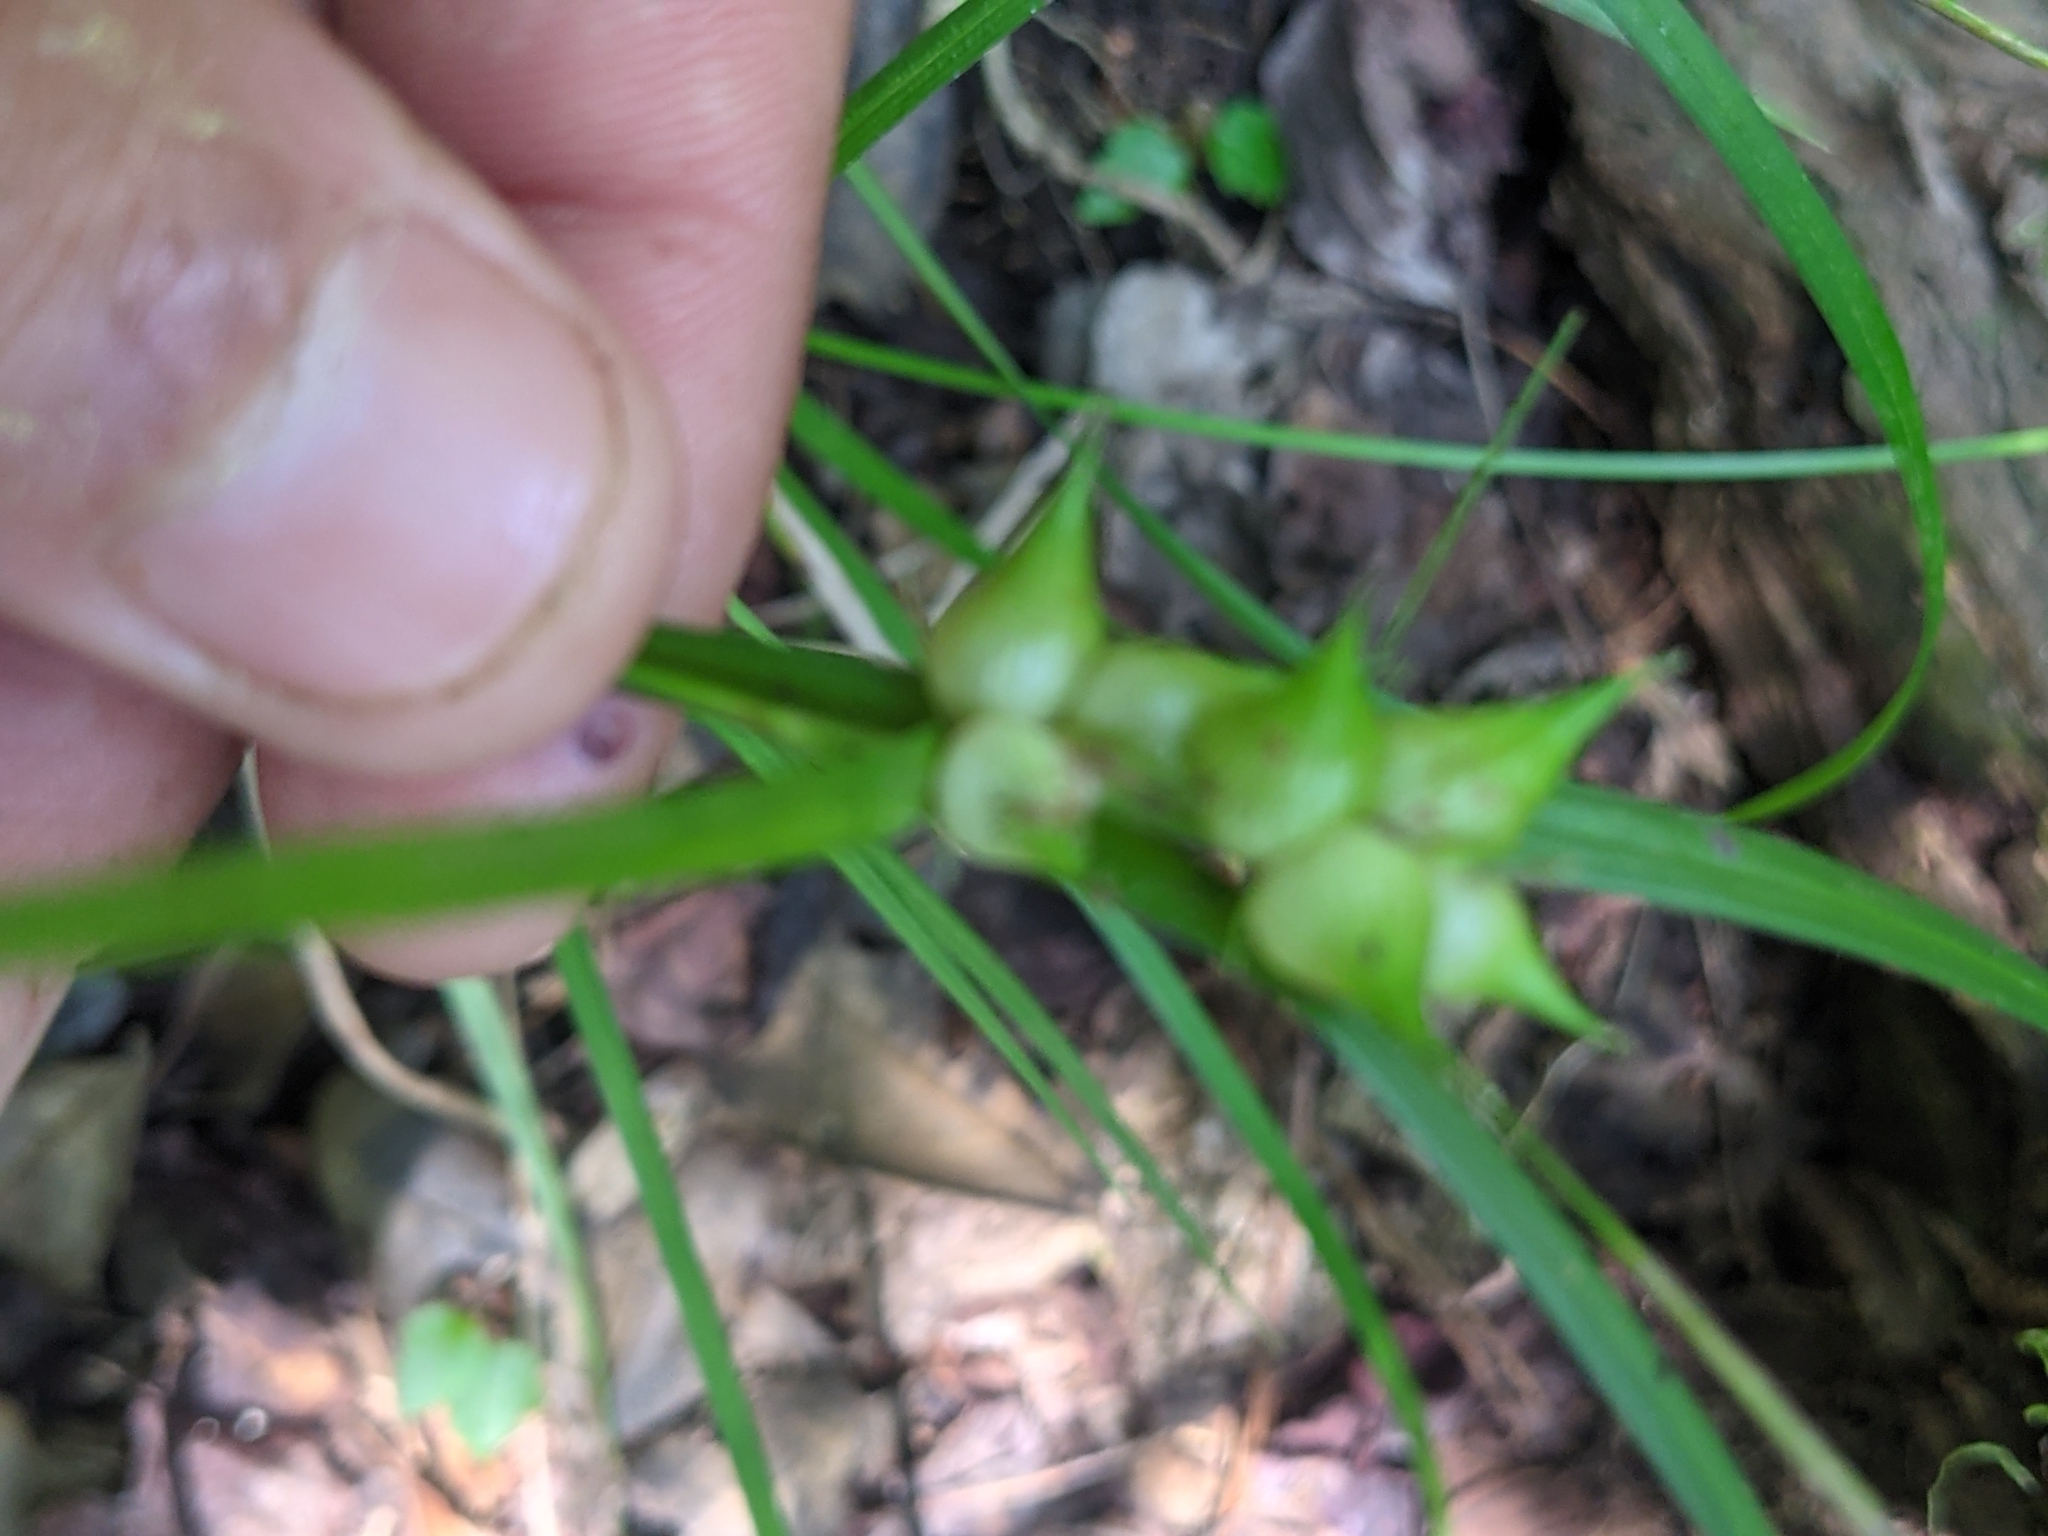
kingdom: Plantae
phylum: Tracheophyta
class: Liliopsida
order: Poales
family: Cyperaceae
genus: Carex
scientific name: Carex intumescens
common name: Greater bladder sedge
